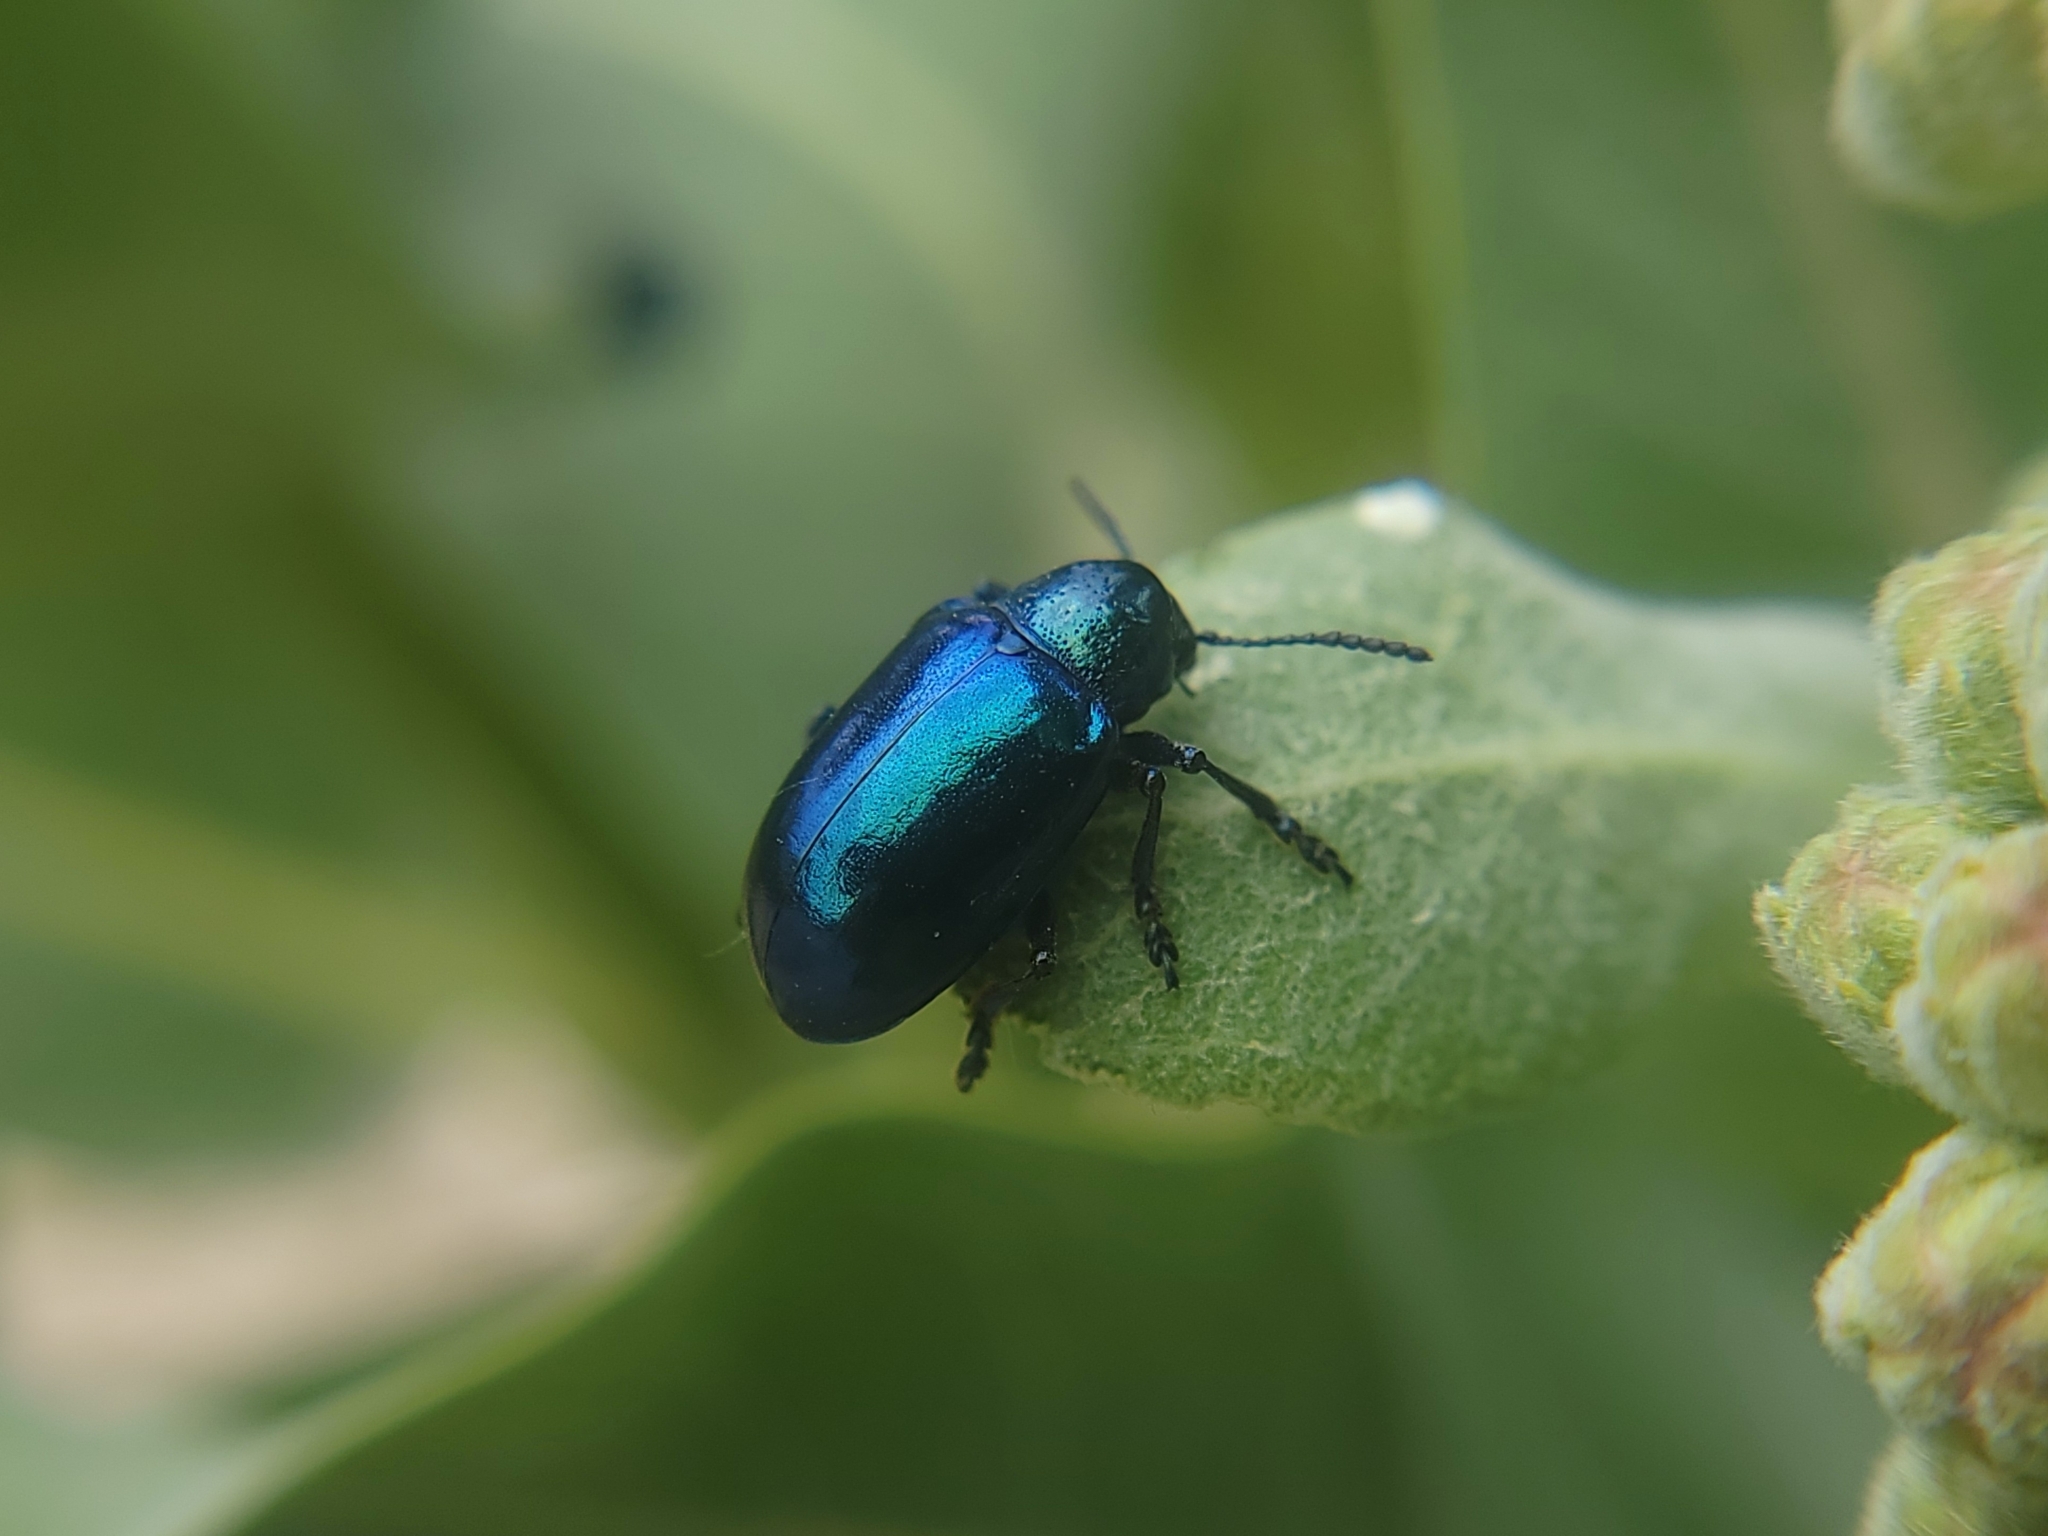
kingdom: Animalia
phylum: Arthropoda
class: Insecta
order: Coleoptera
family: Chrysomelidae
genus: Chrysochus
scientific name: Chrysochus cobaltinus
